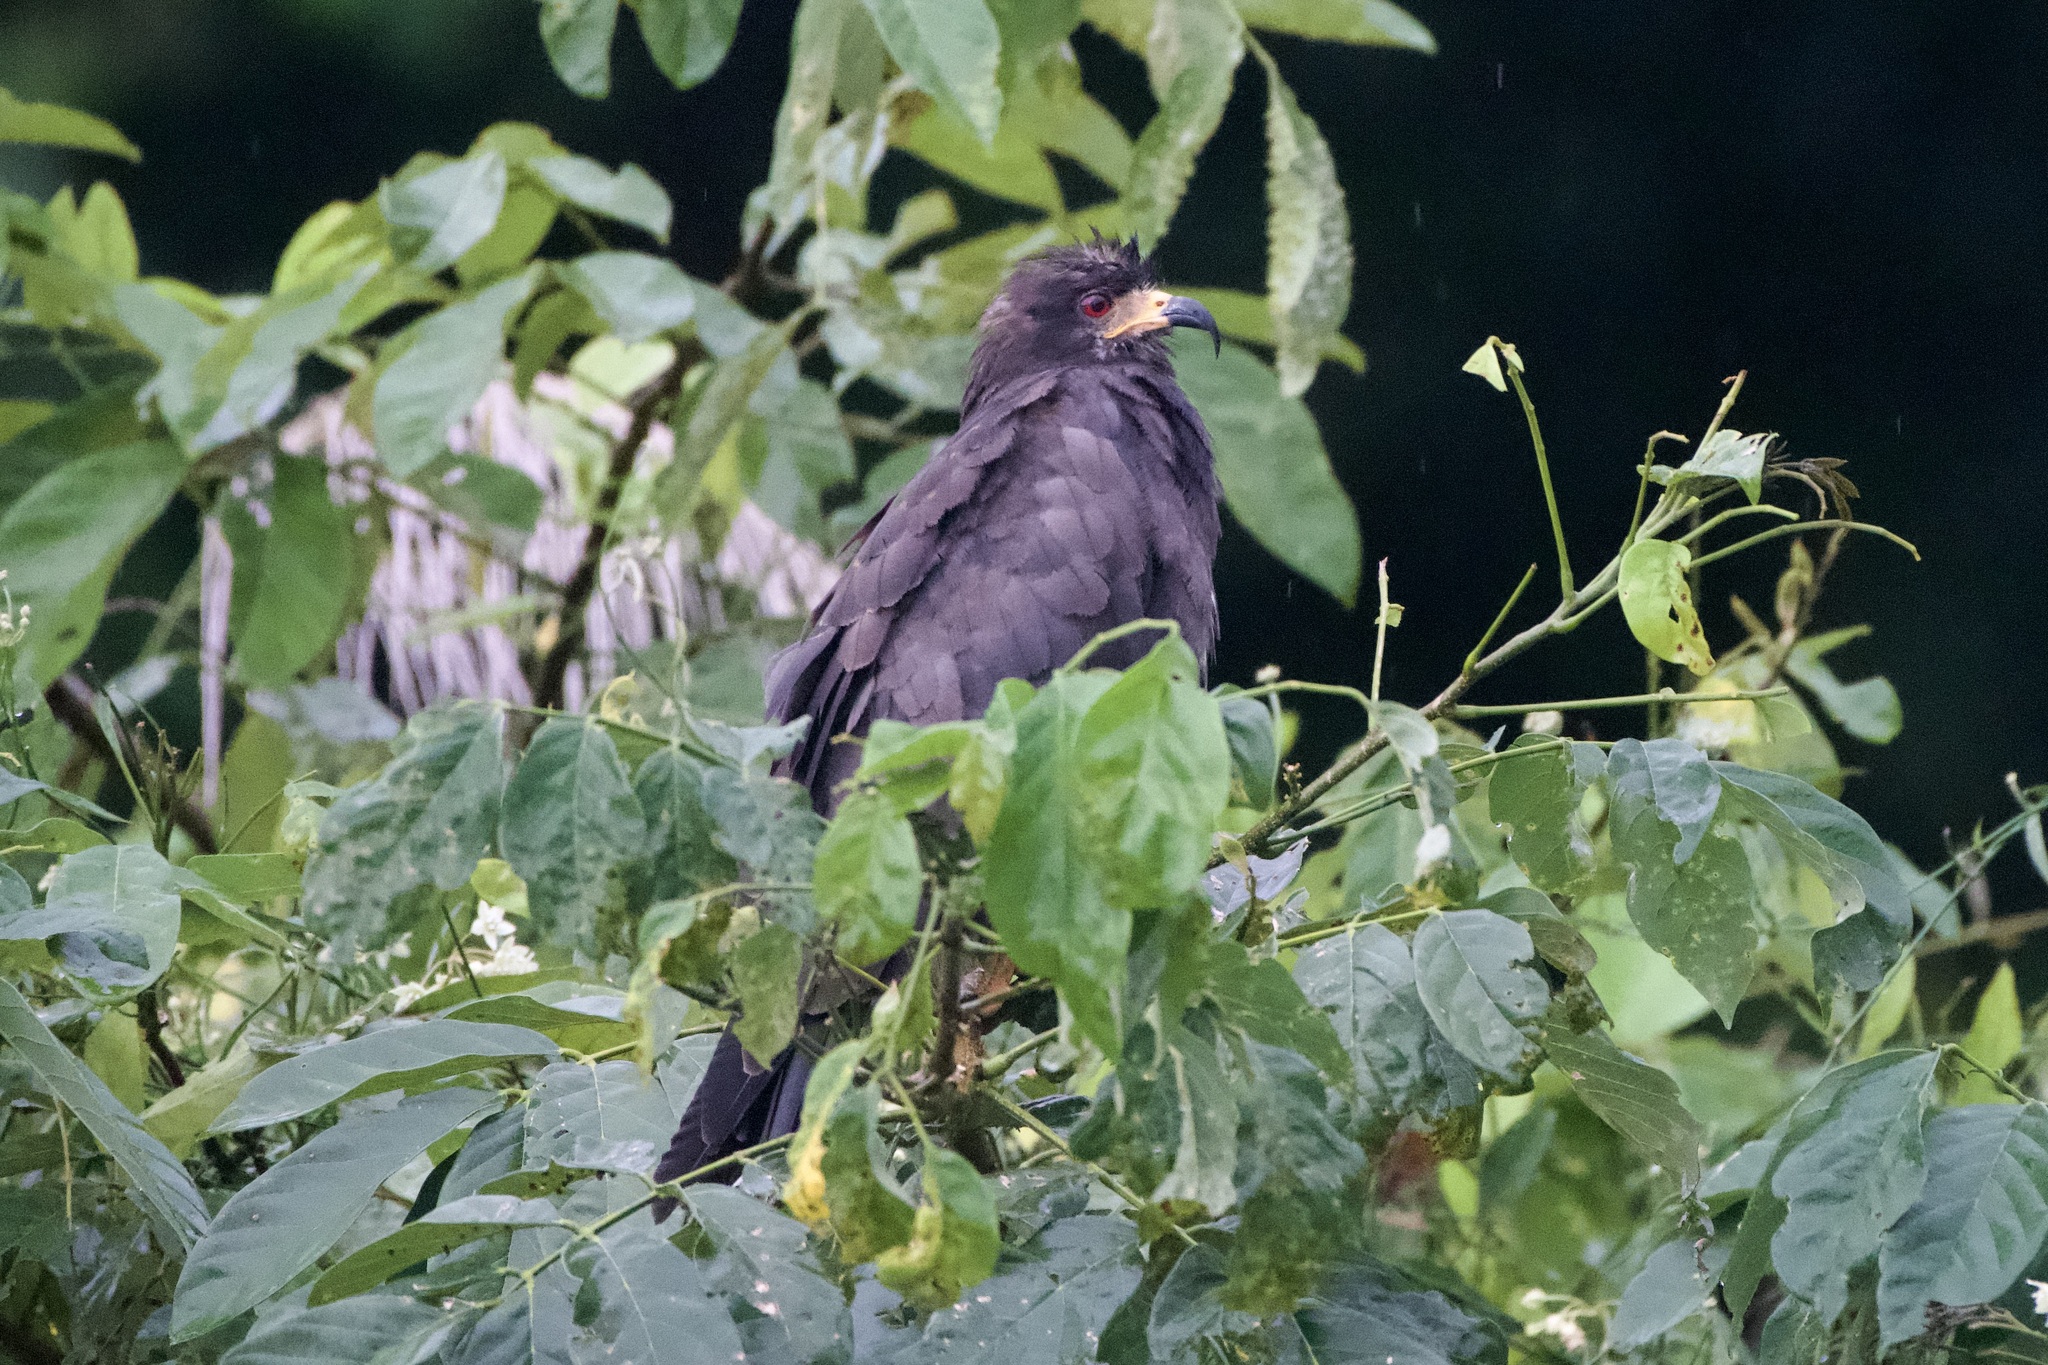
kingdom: Animalia
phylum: Chordata
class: Aves
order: Accipitriformes
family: Accipitridae
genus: Rostrhamus
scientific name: Rostrhamus sociabilis
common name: Snail kite
